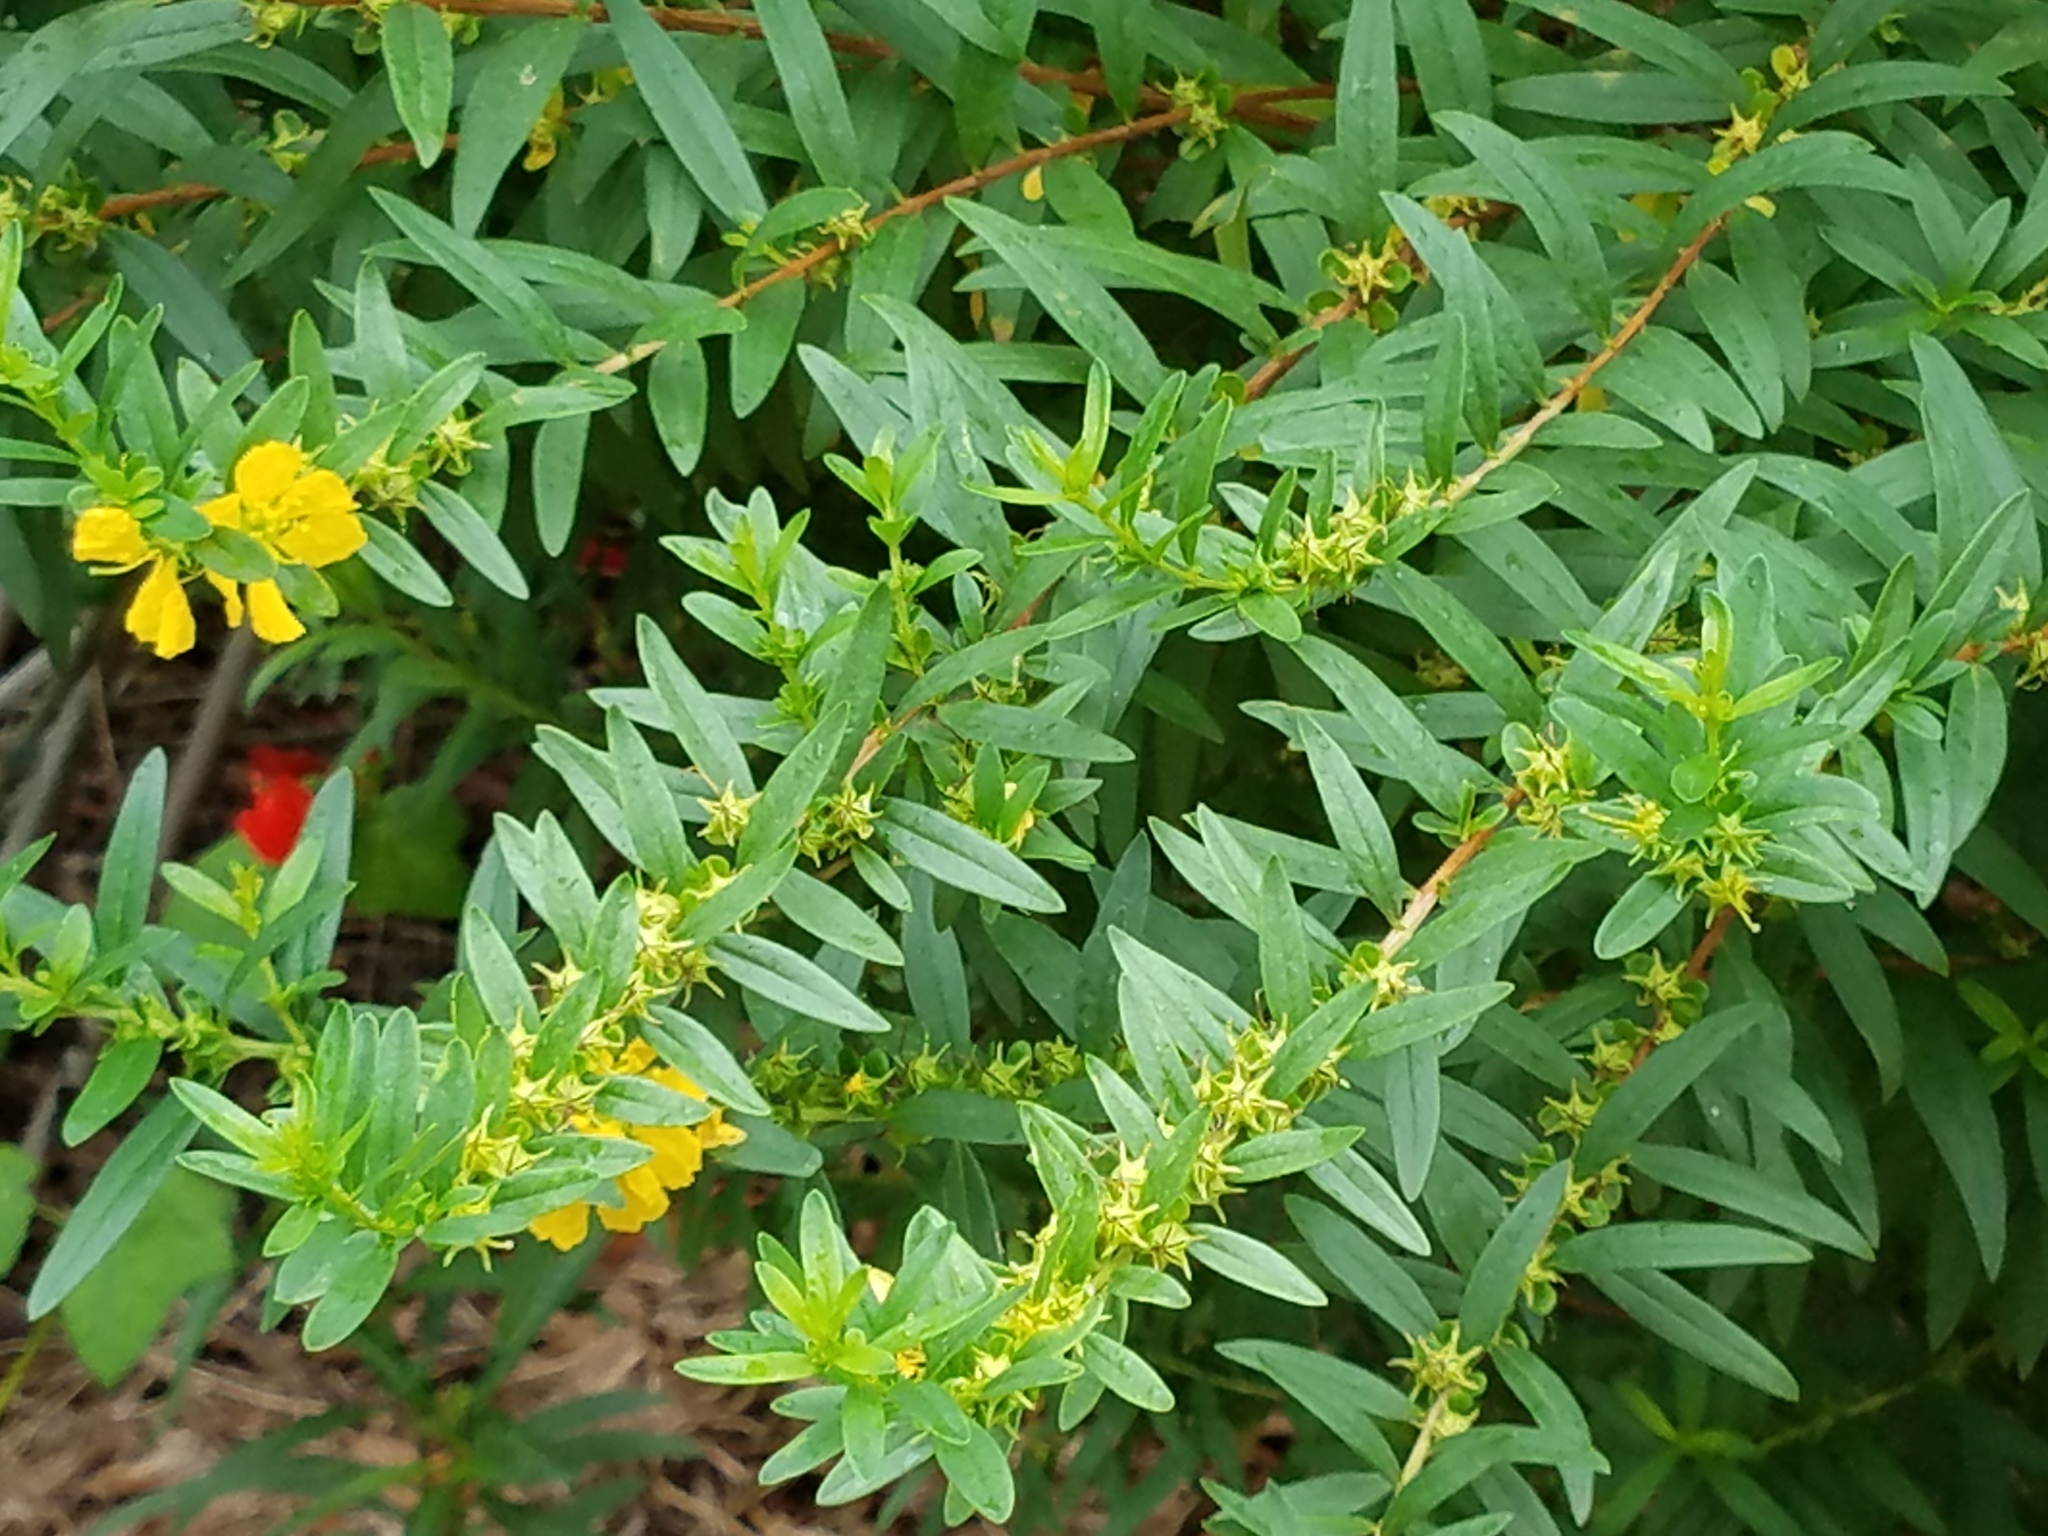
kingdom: Plantae
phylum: Tracheophyta
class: Magnoliopsida
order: Myrtales
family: Lythraceae
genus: Heimia
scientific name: Heimia salicifolia
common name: Willow-leaf heimia
